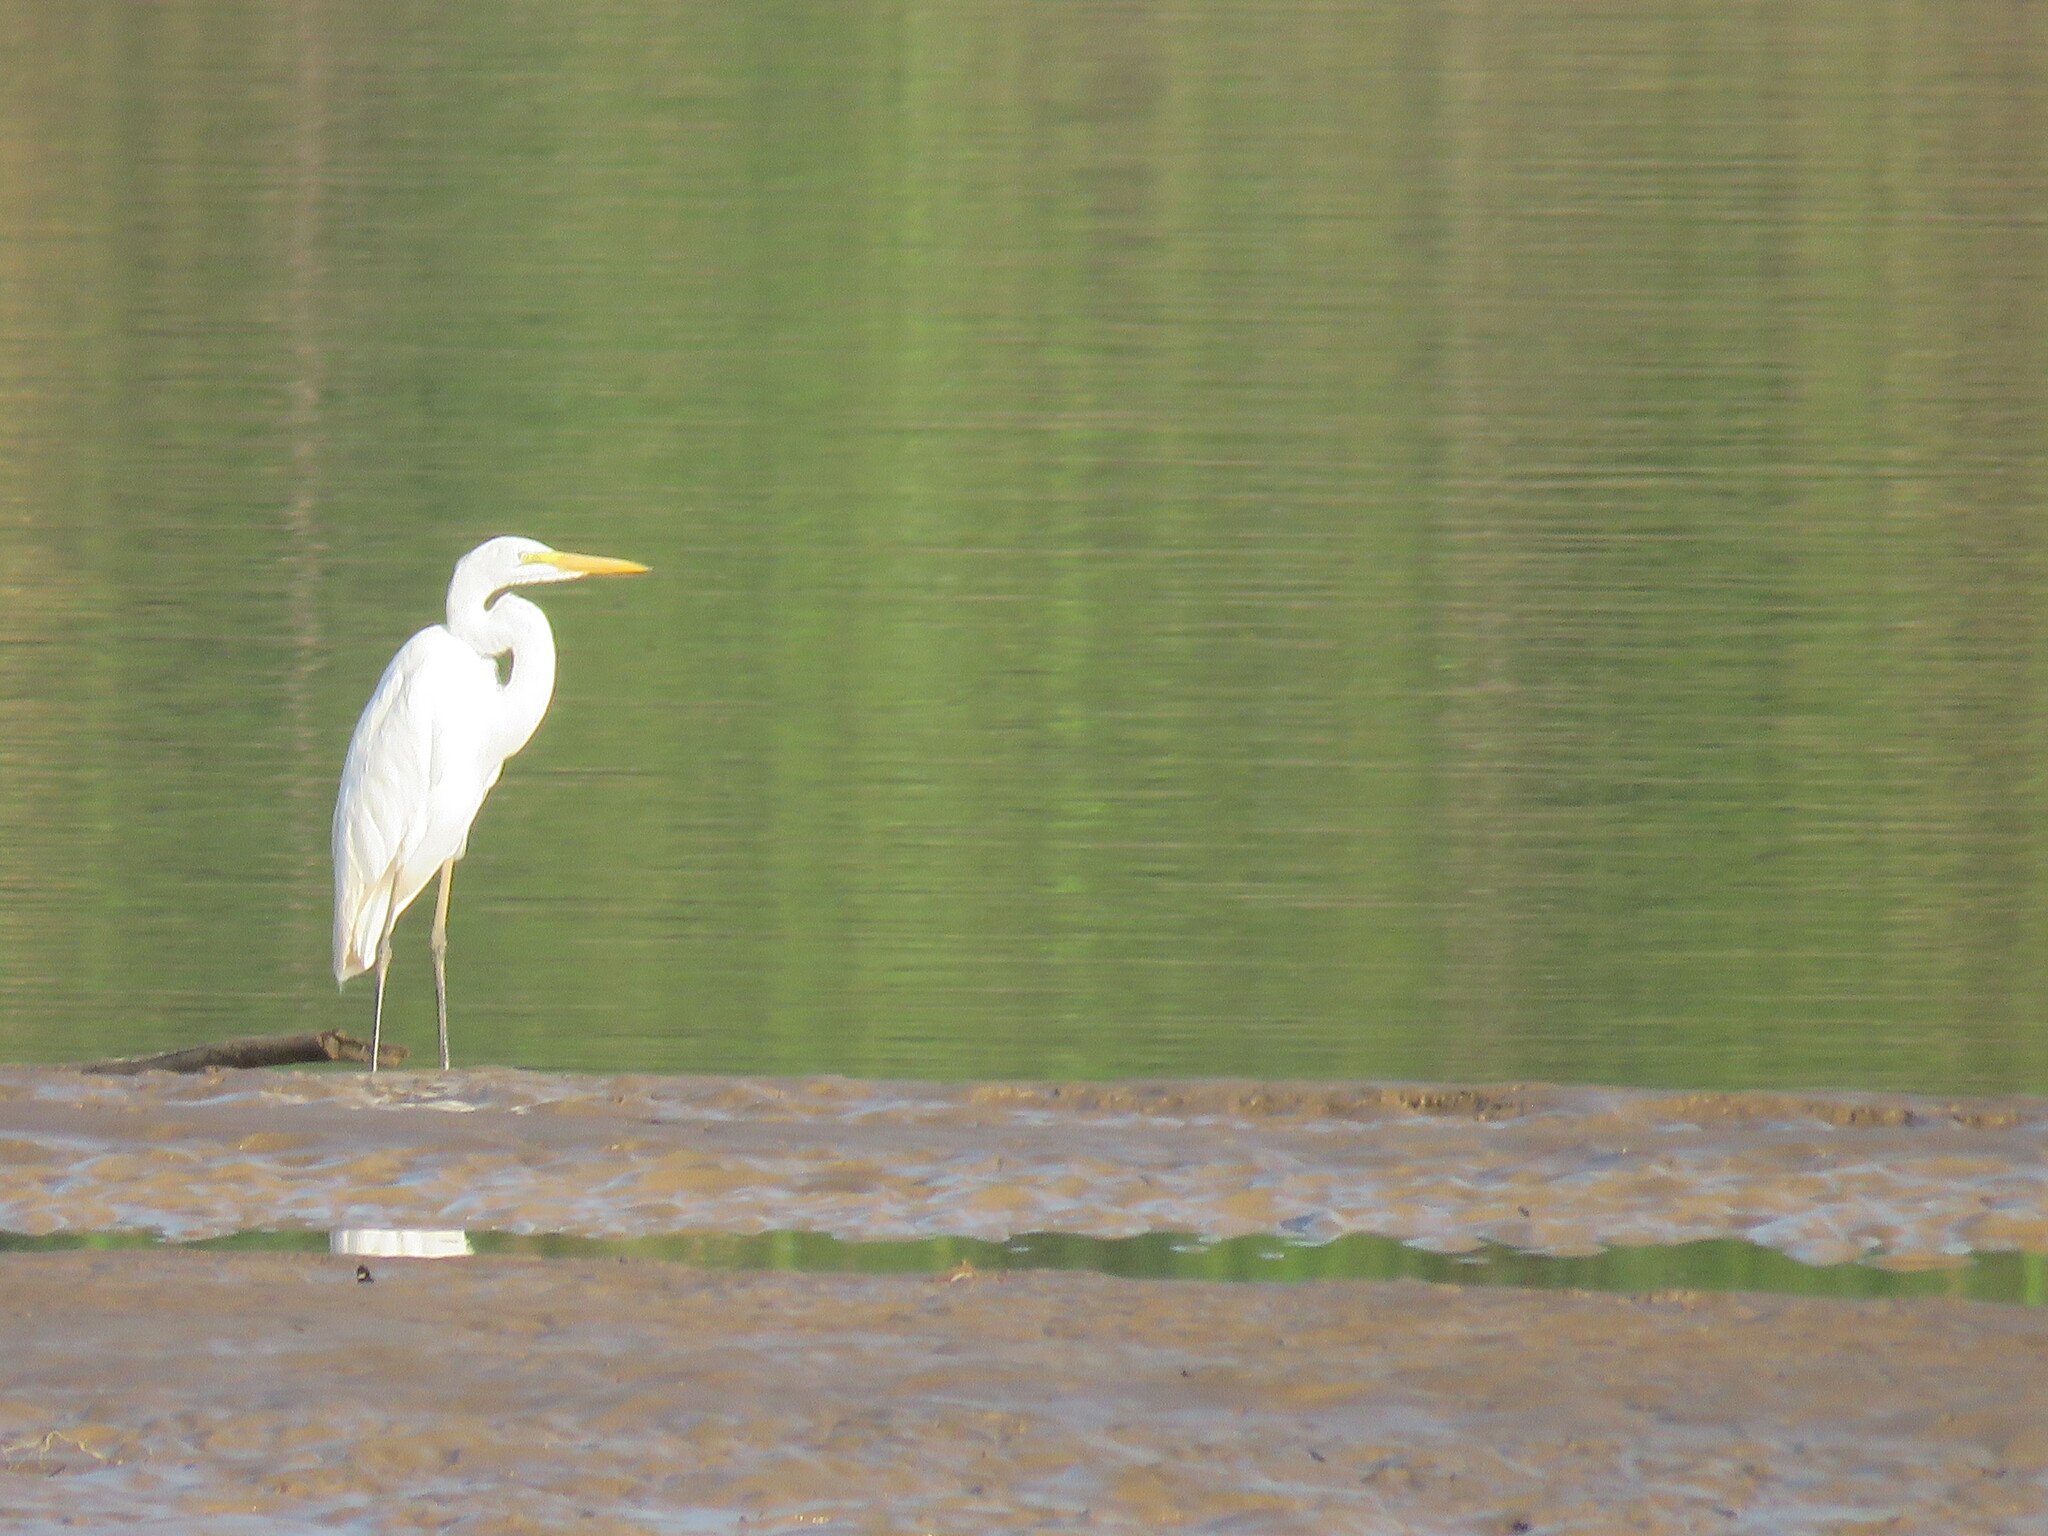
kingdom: Animalia
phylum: Chordata
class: Aves
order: Pelecaniformes
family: Ardeidae
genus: Ardea
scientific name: Ardea alba
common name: Great egret
